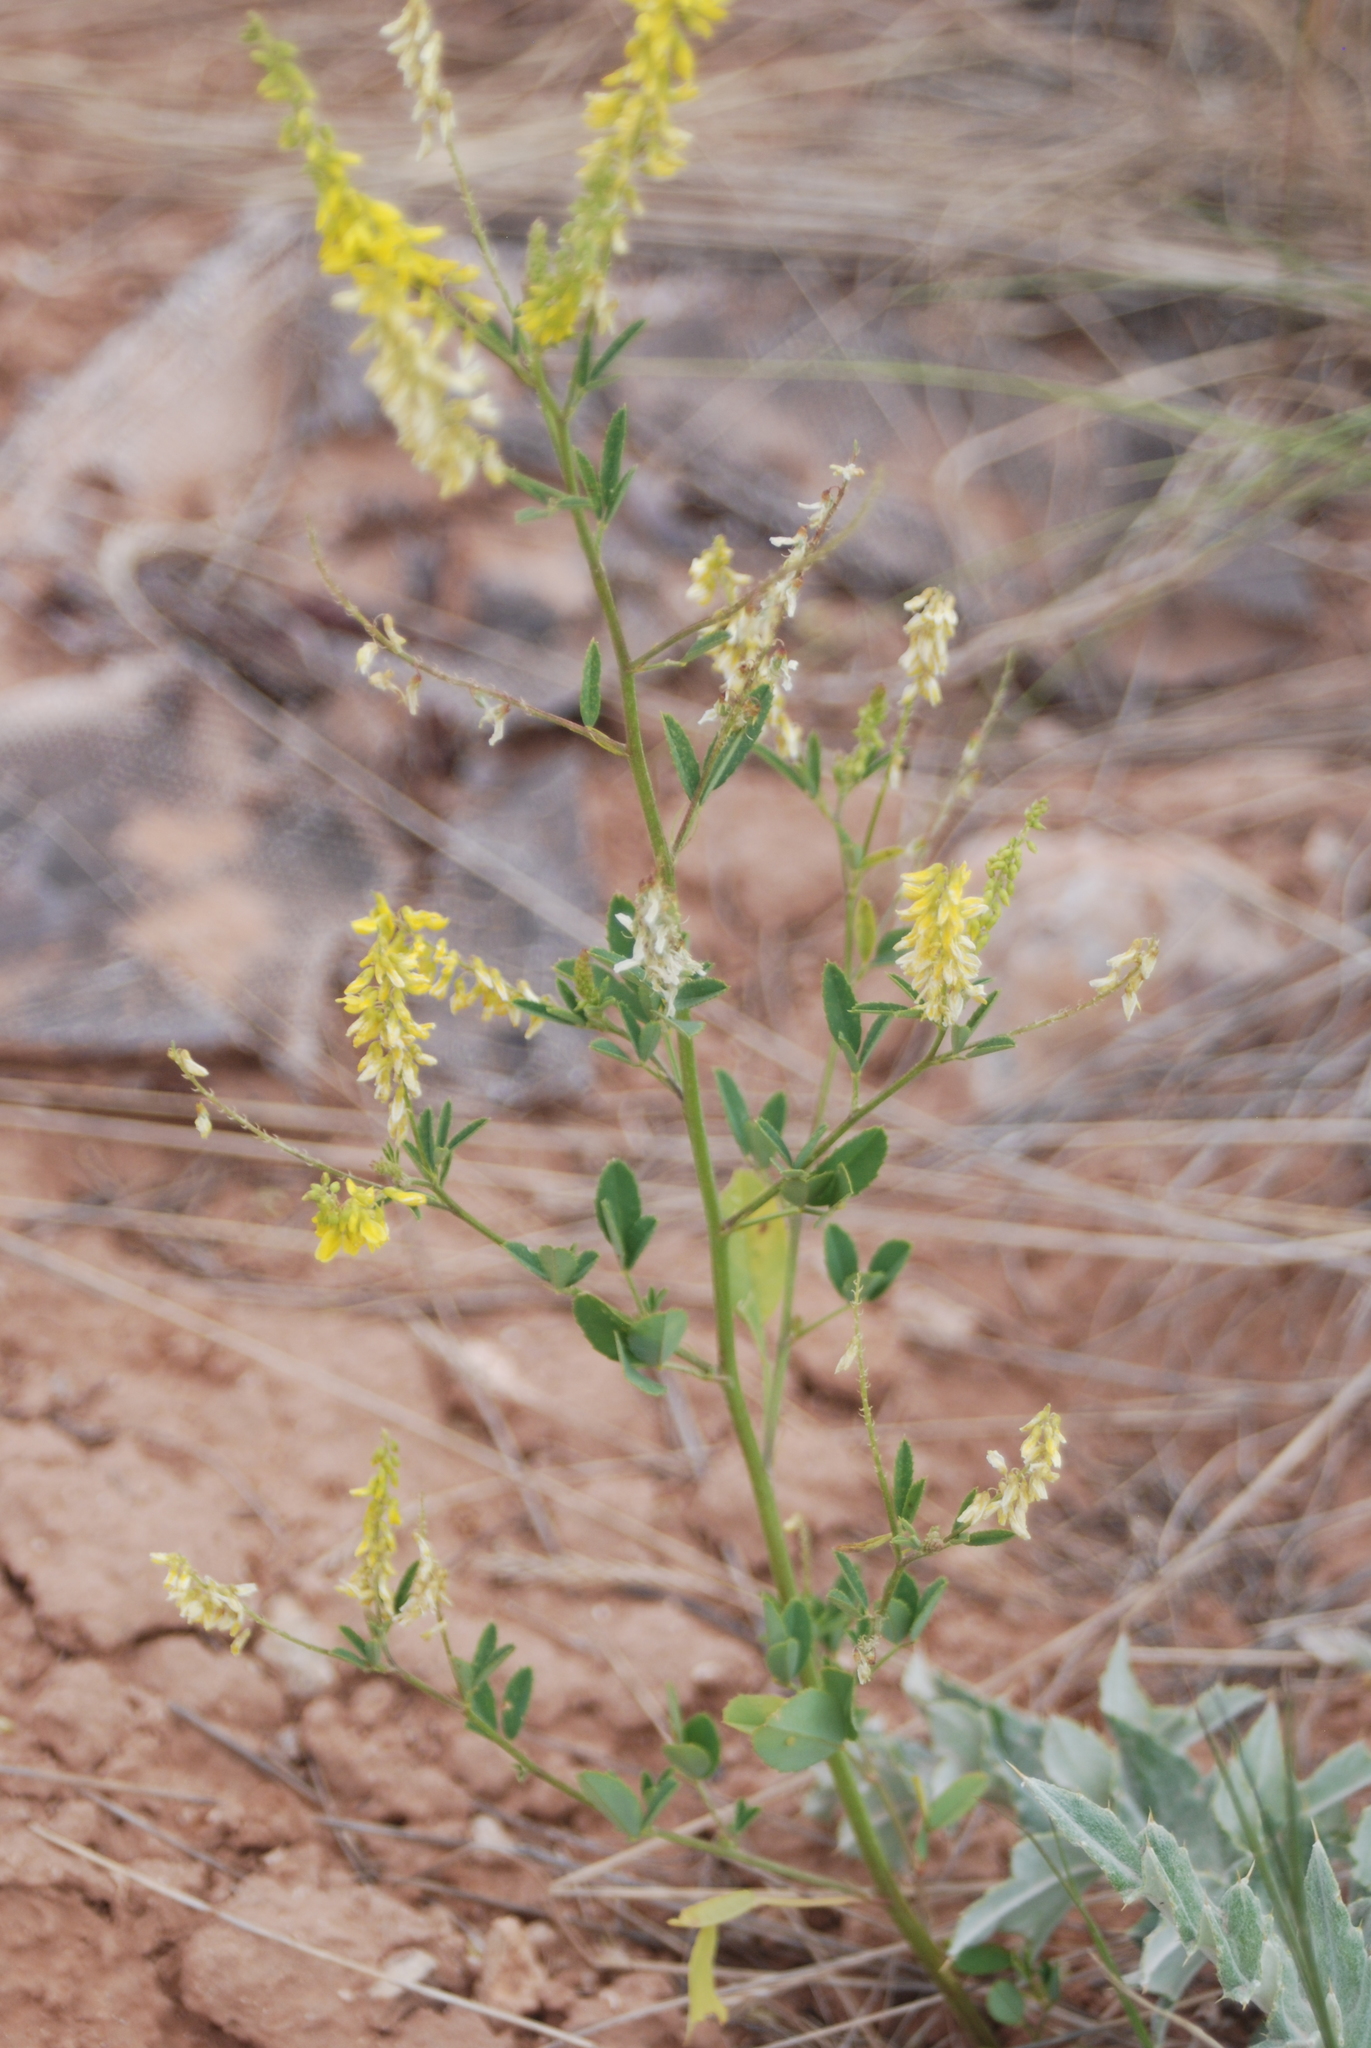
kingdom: Plantae
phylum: Tracheophyta
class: Magnoliopsida
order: Fabales
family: Fabaceae
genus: Melilotus
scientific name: Melilotus officinalis
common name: Sweetclover
